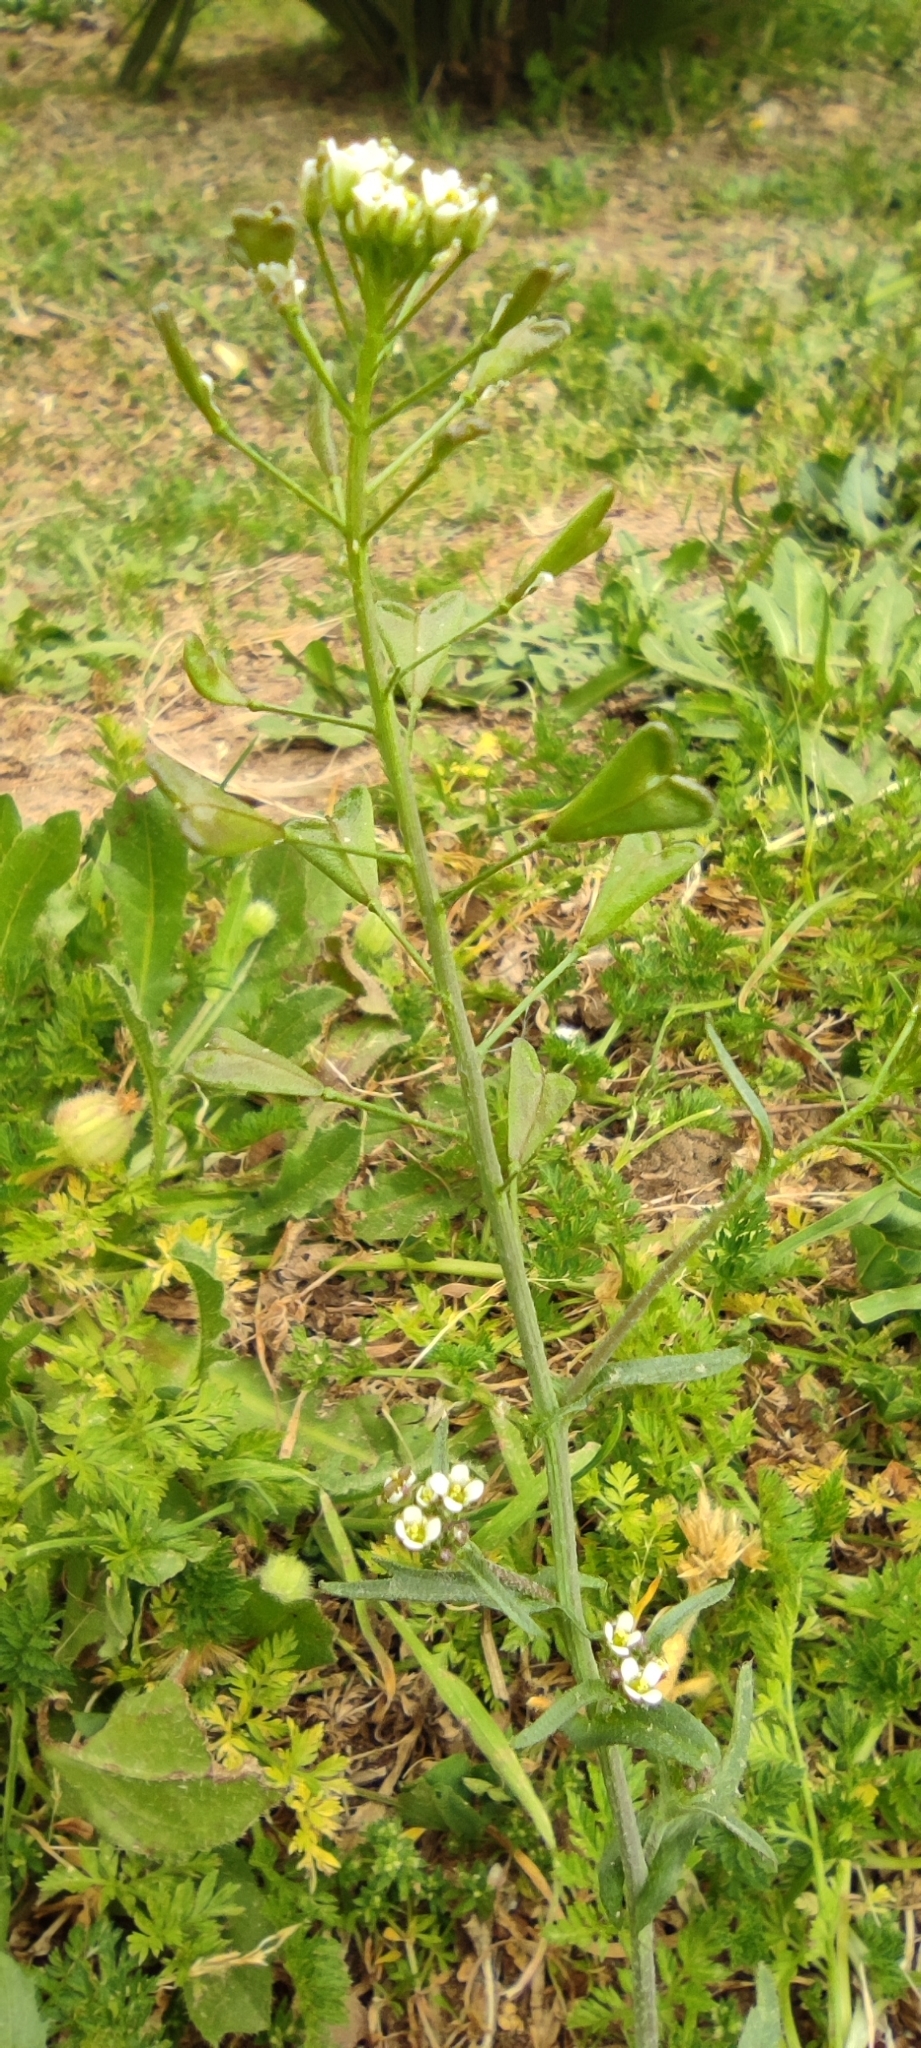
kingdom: Plantae
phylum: Tracheophyta
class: Magnoliopsida
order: Brassicales
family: Brassicaceae
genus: Capsella
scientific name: Capsella bursa-pastoris
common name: Shepherd's purse
